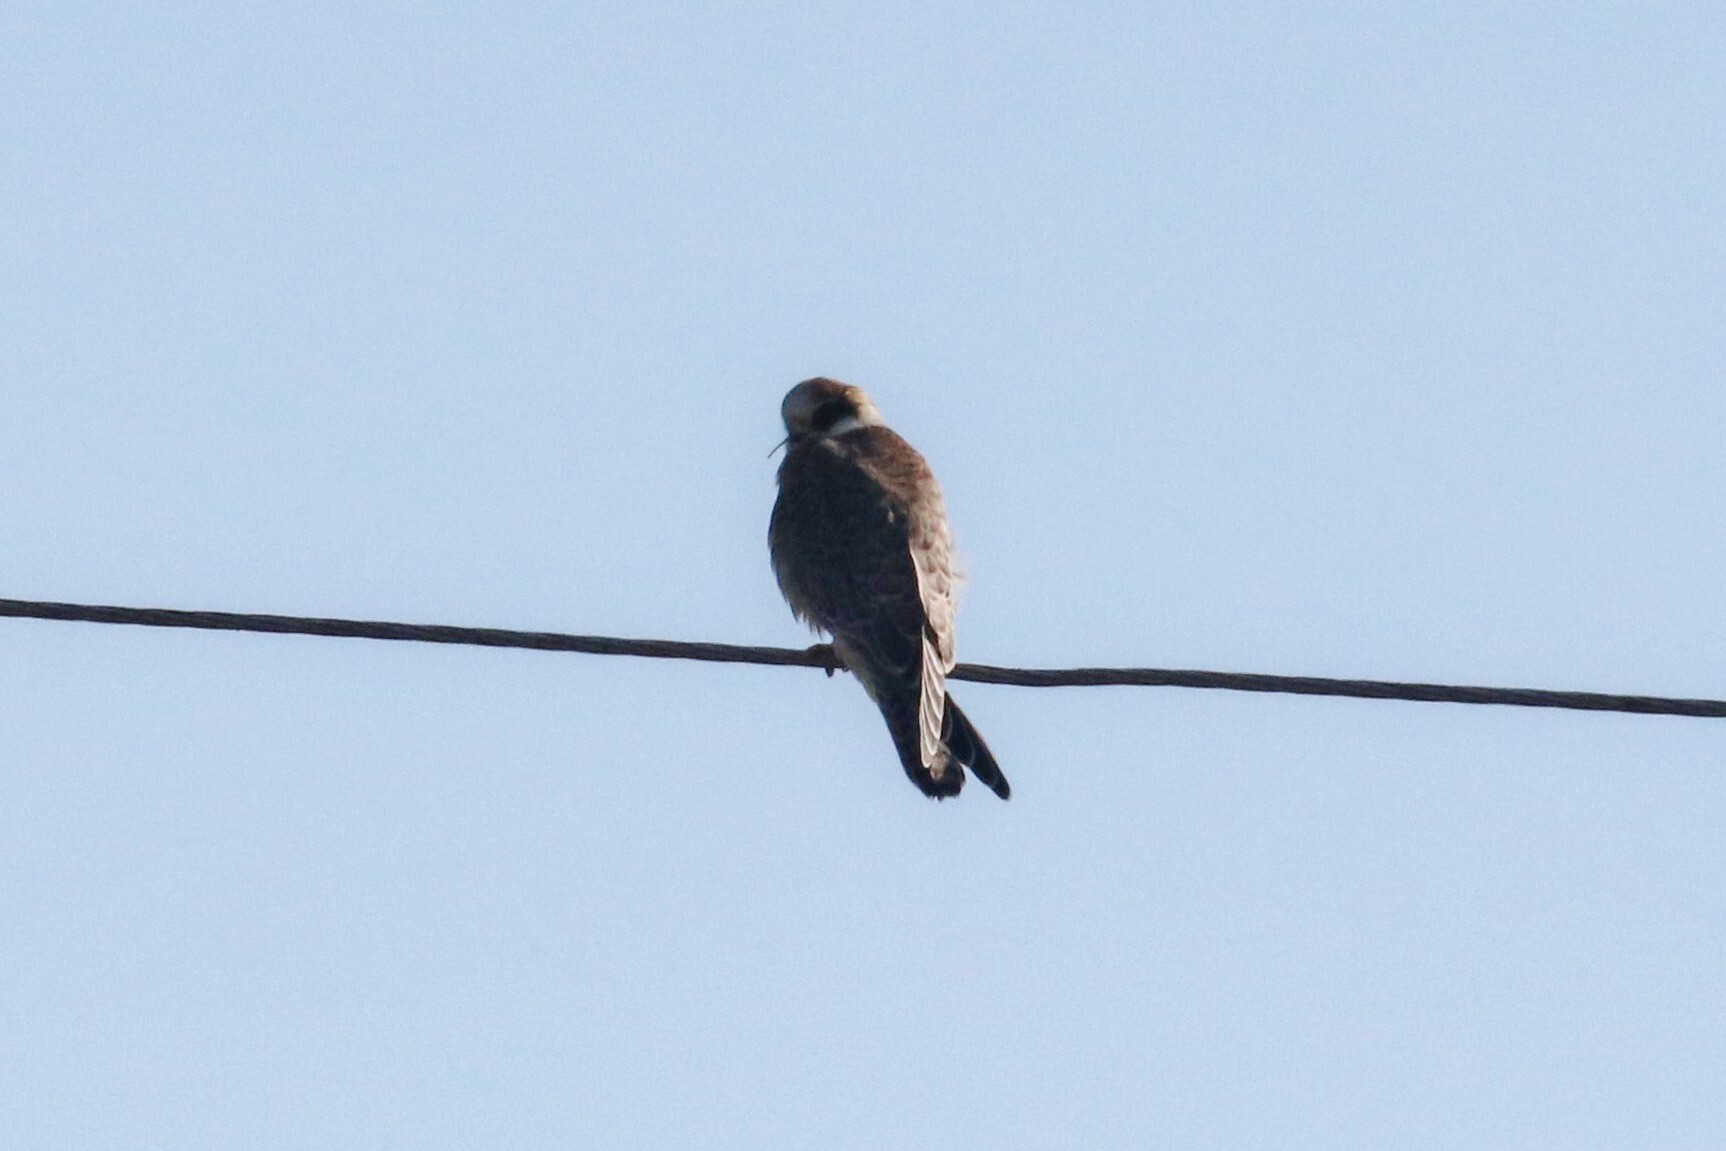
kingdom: Animalia
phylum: Chordata
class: Aves
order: Falconiformes
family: Falconidae
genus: Falco
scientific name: Falco vespertinus
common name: Red-footed falcon
